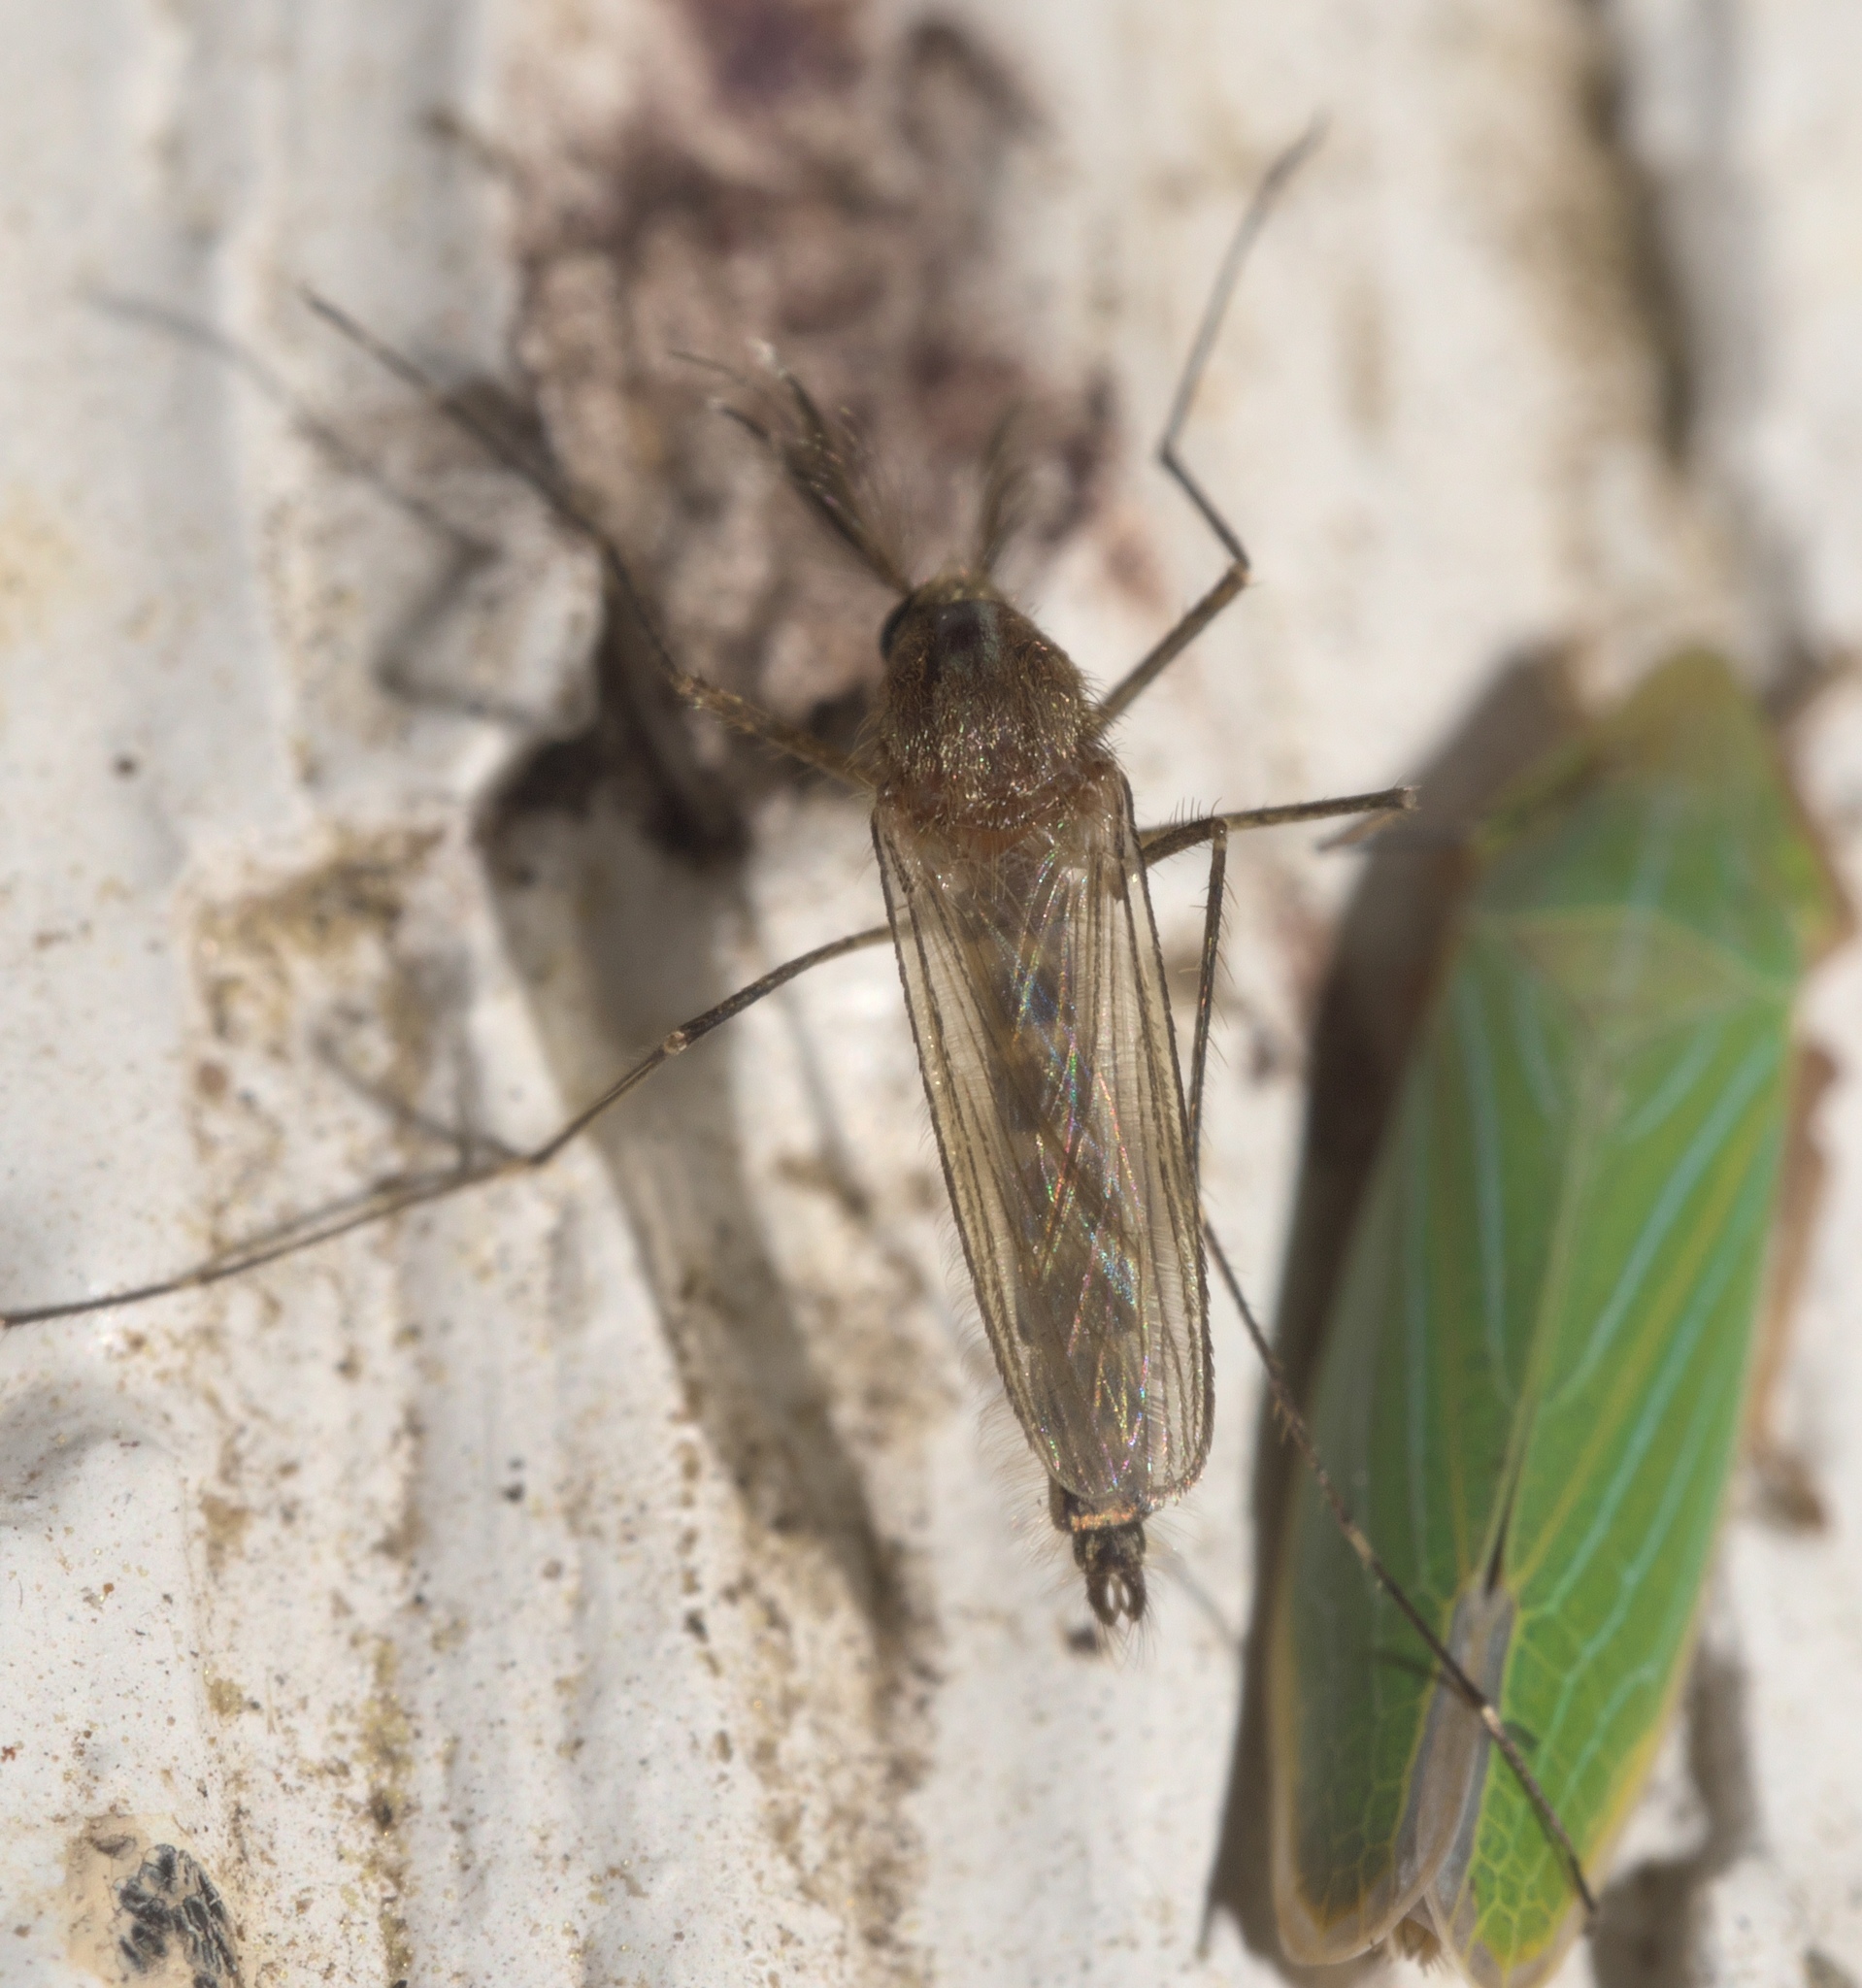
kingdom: Animalia
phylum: Arthropoda
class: Insecta
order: Diptera
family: Culicidae
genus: Aedes
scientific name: Aedes vexans
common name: Inland floodwater mosquito
